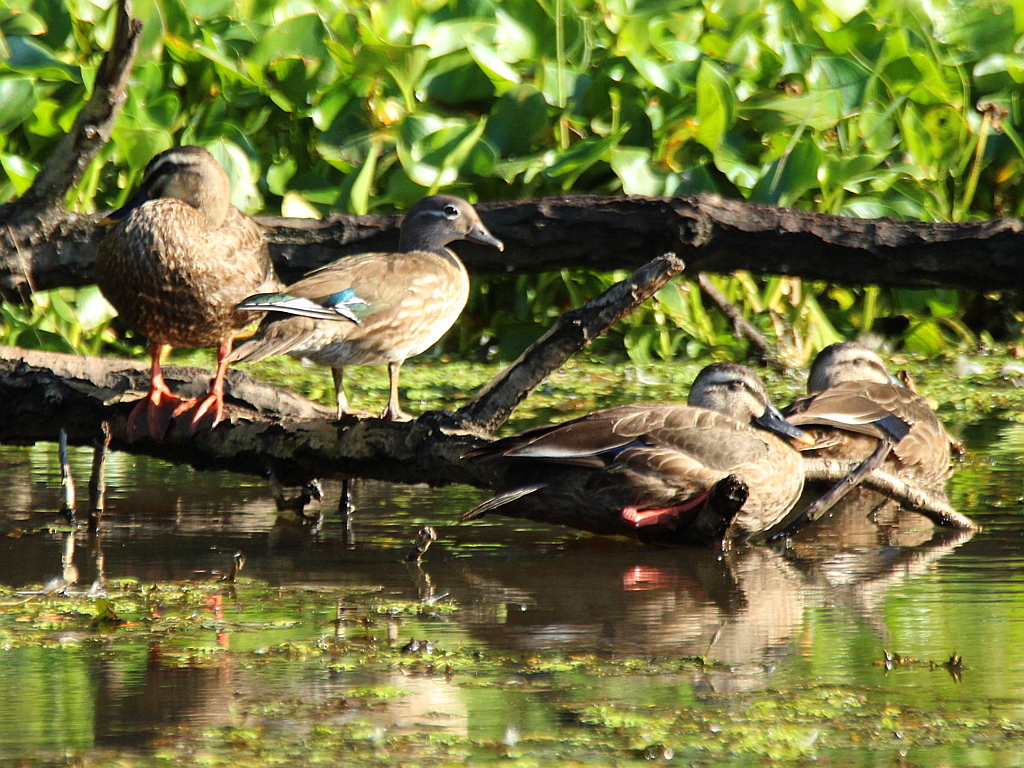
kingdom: Animalia
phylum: Chordata
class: Aves
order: Anseriformes
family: Anatidae
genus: Anas
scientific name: Anas zonorhyncha
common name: Eastern spot-billed duck
